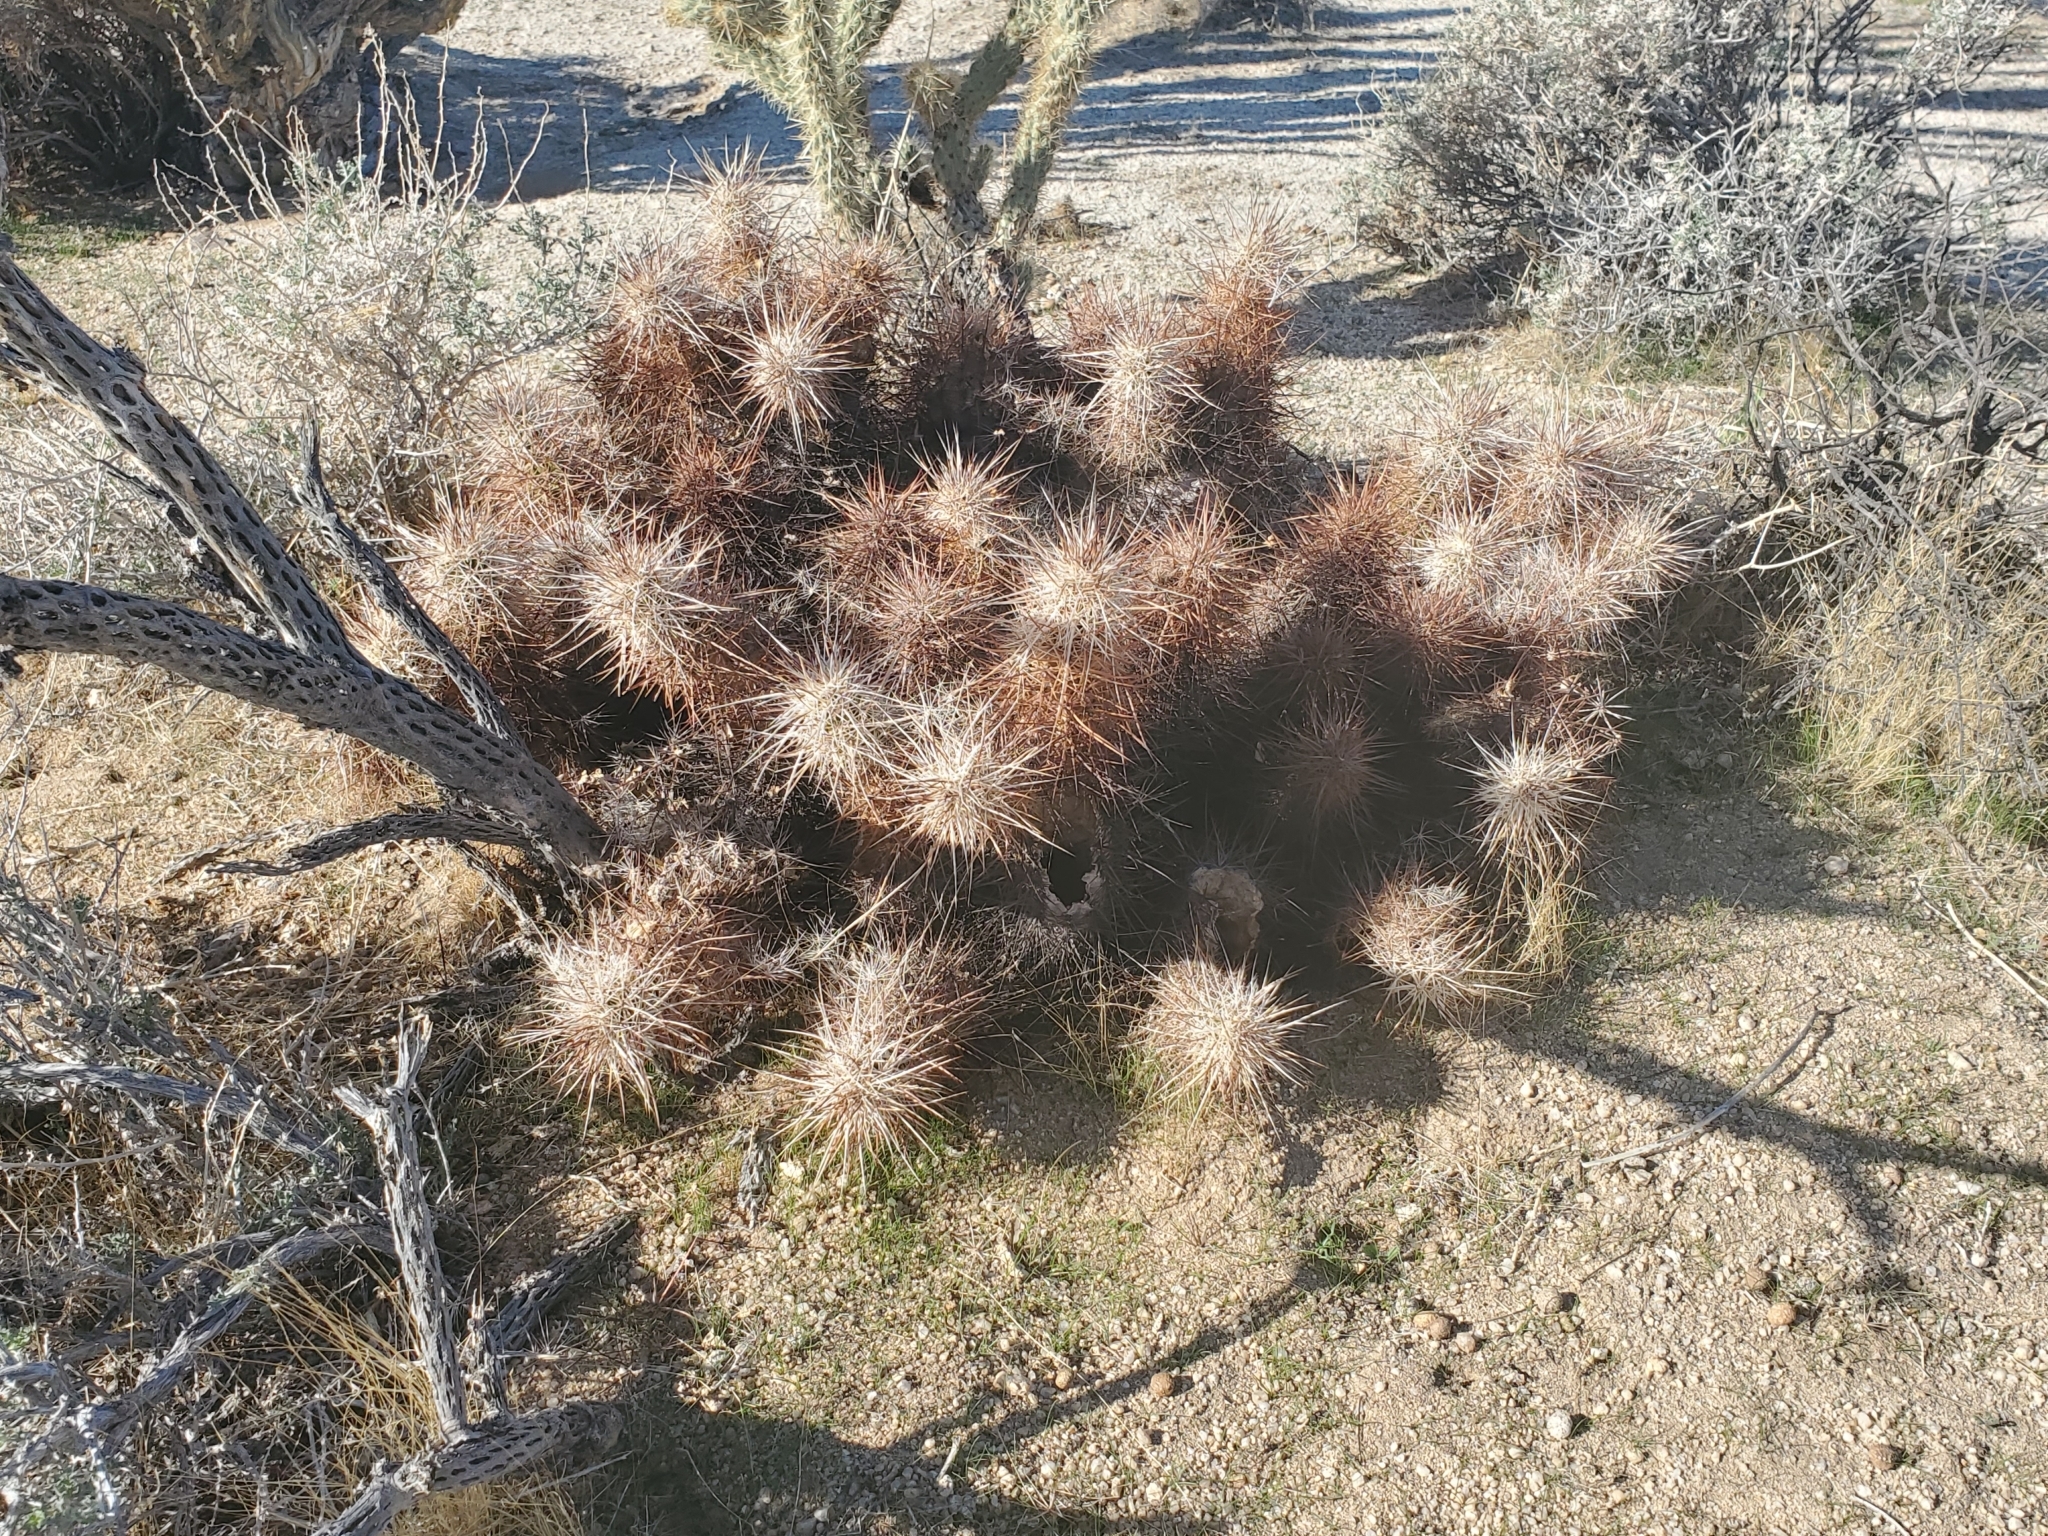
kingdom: Plantae
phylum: Tracheophyta
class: Magnoliopsida
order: Caryophyllales
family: Cactaceae
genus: Echinocereus
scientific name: Echinocereus engelmannii
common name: Engelmann's hedgehog cactus
